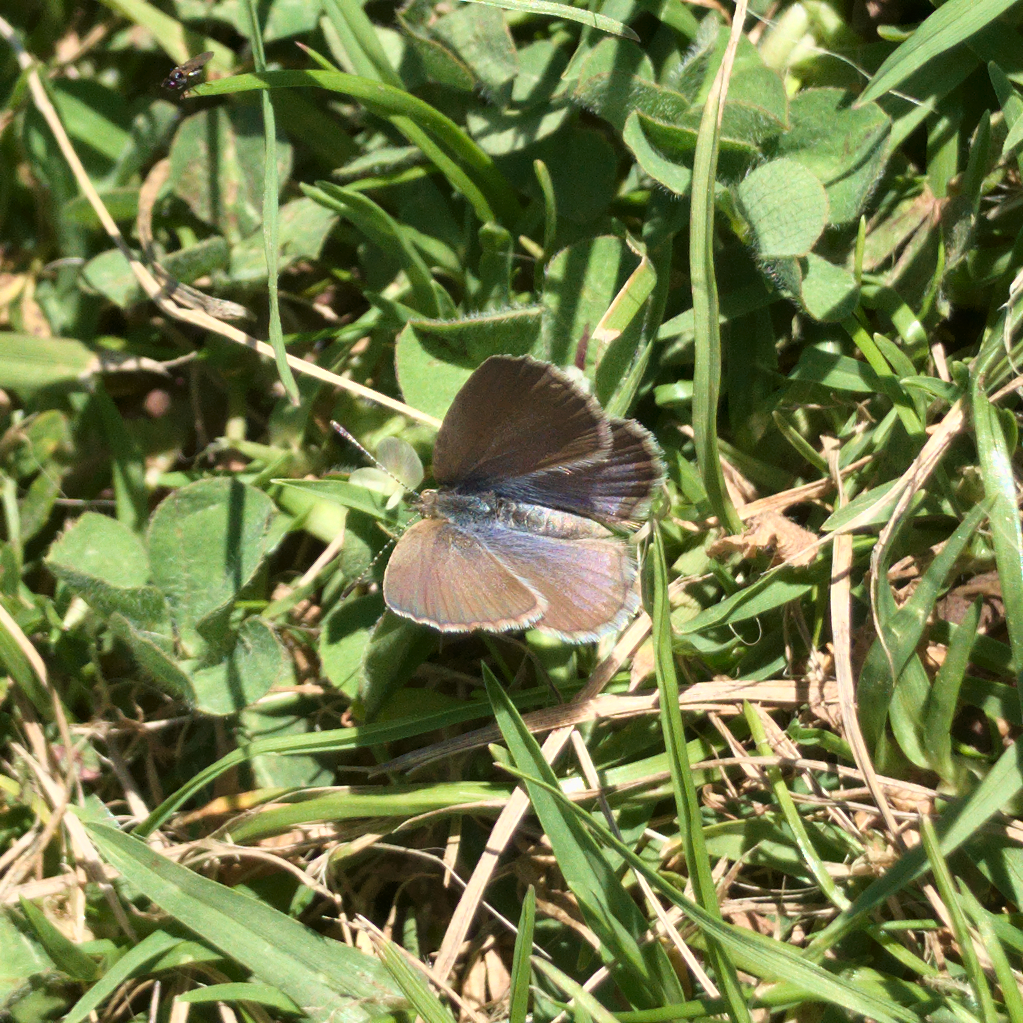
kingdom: Animalia
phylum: Arthropoda
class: Insecta
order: Lepidoptera
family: Lycaenidae
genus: Zizina
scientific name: Zizina labradus
